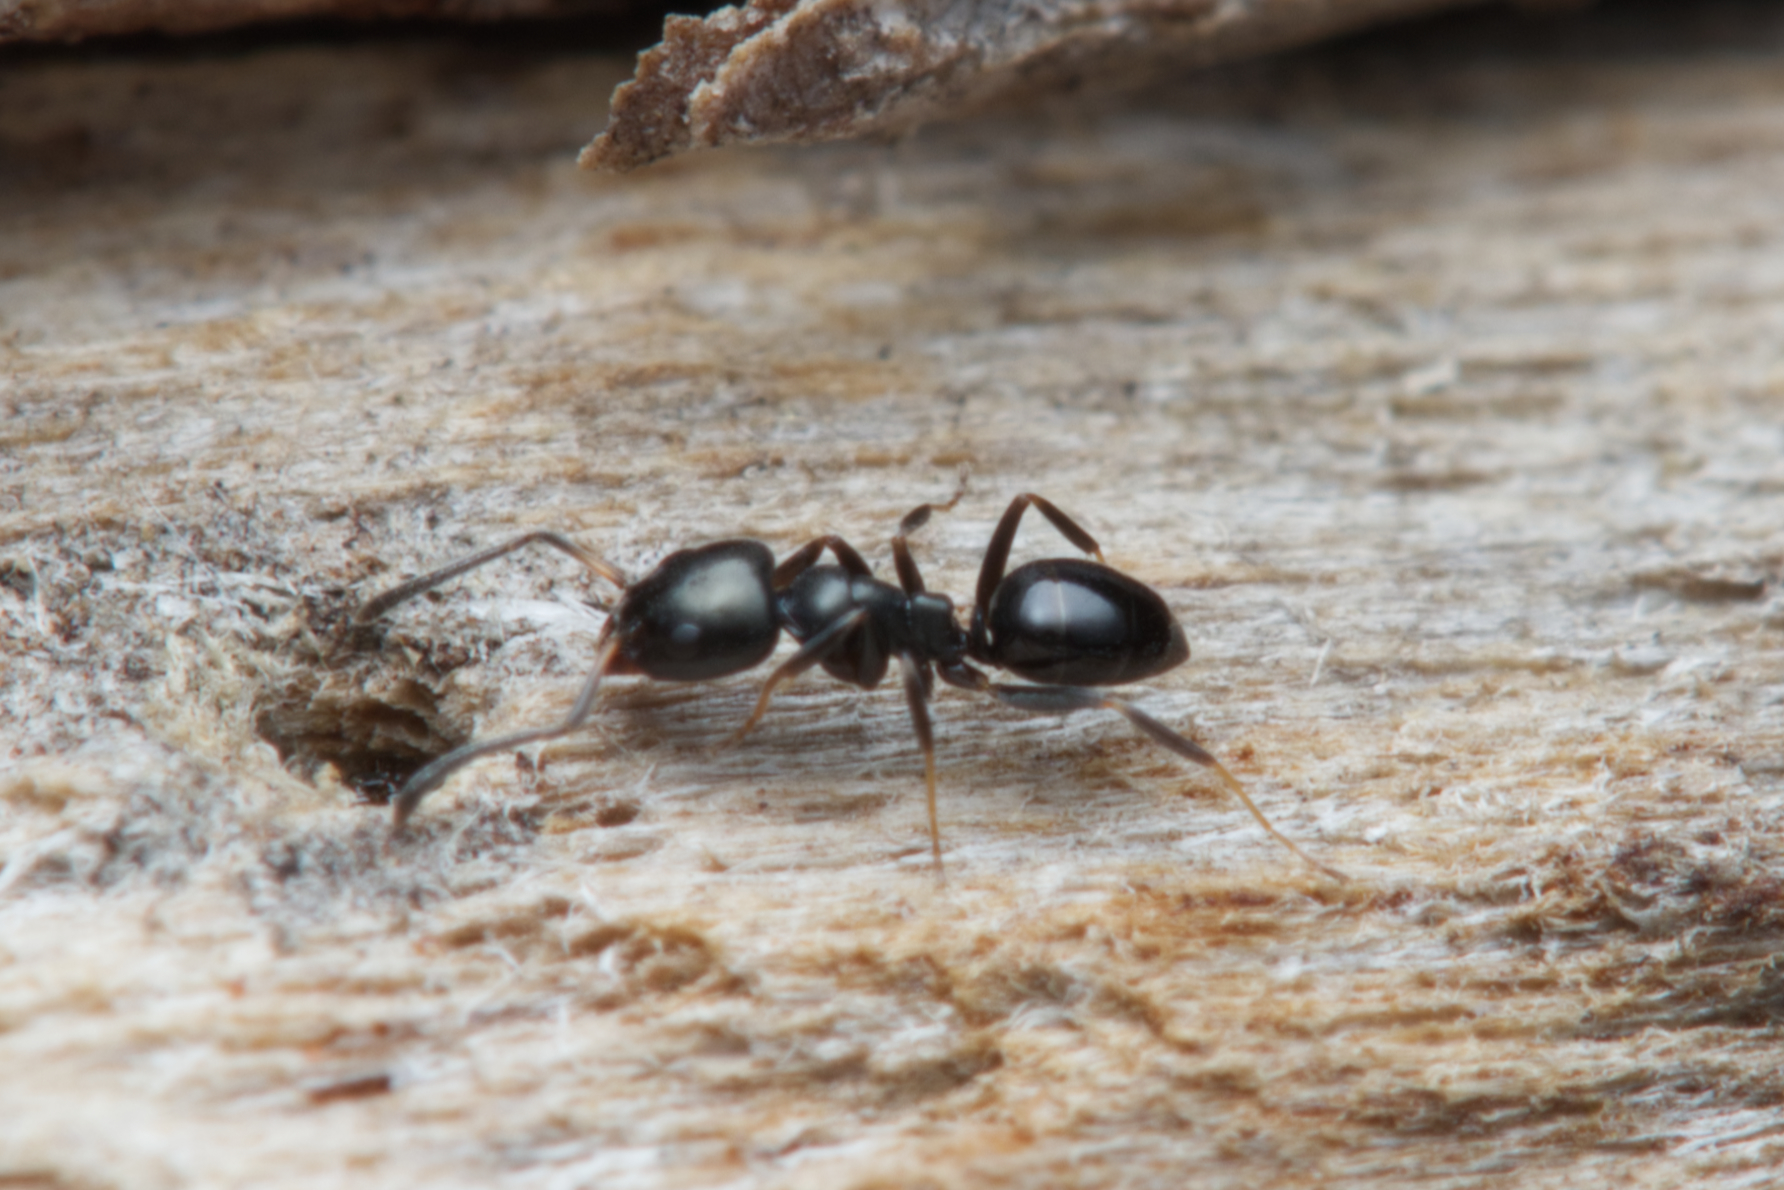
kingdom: Animalia
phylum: Arthropoda
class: Insecta
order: Hymenoptera
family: Formicidae
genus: Ochetellus
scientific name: Ochetellus glaber
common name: Ant
